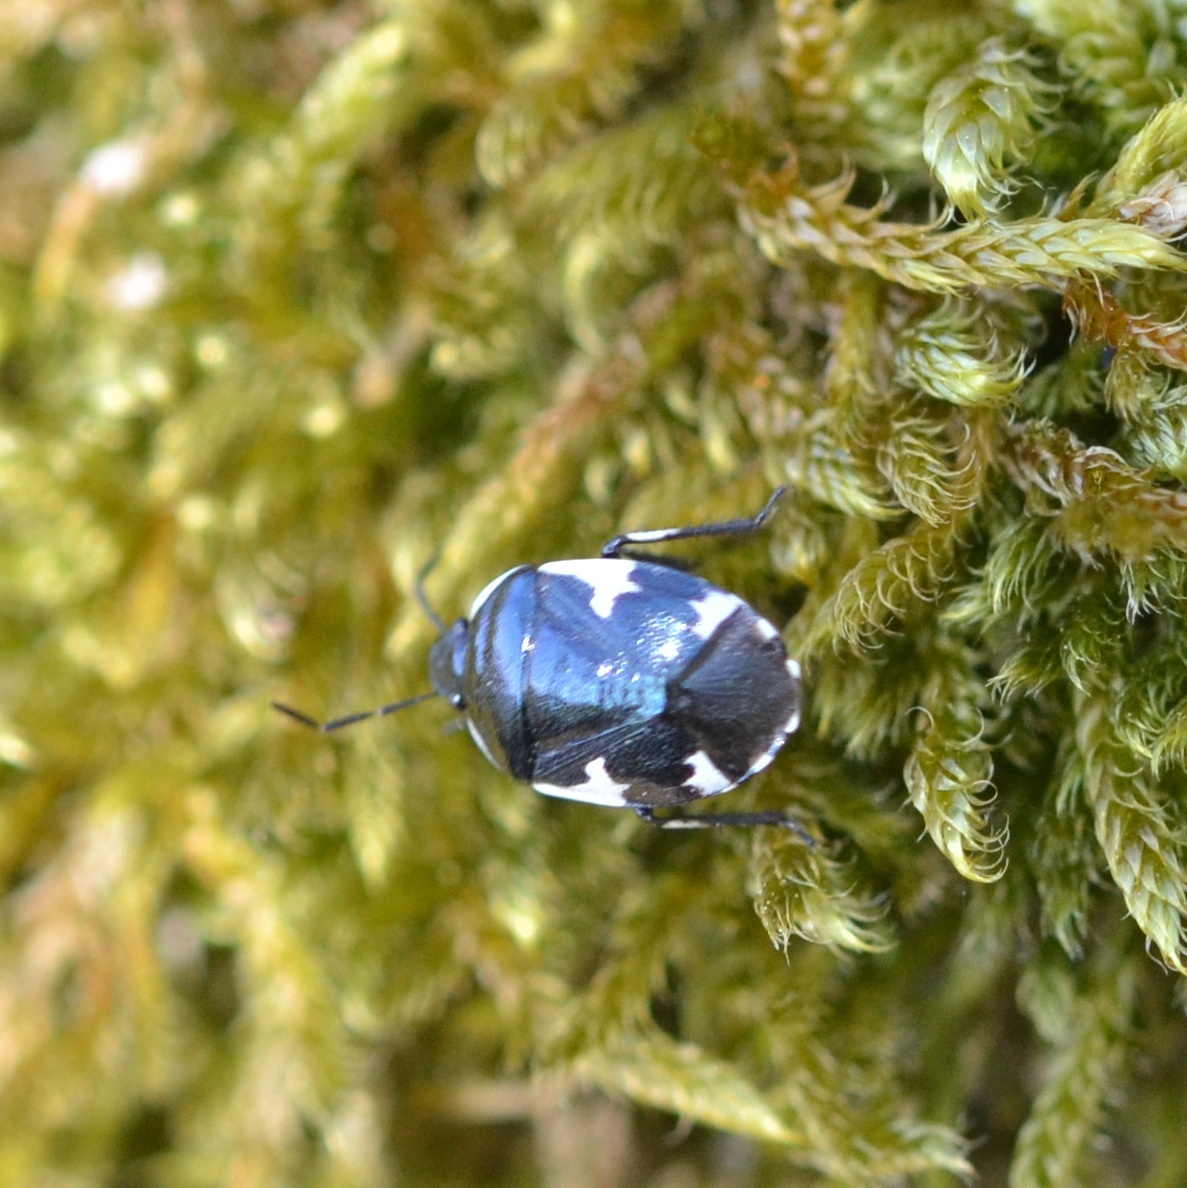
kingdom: Animalia
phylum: Arthropoda
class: Insecta
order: Hemiptera
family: Cydnidae
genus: Tritomegas
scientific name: Tritomegas sexmaculatus
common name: Rambur's pied shieldbug
